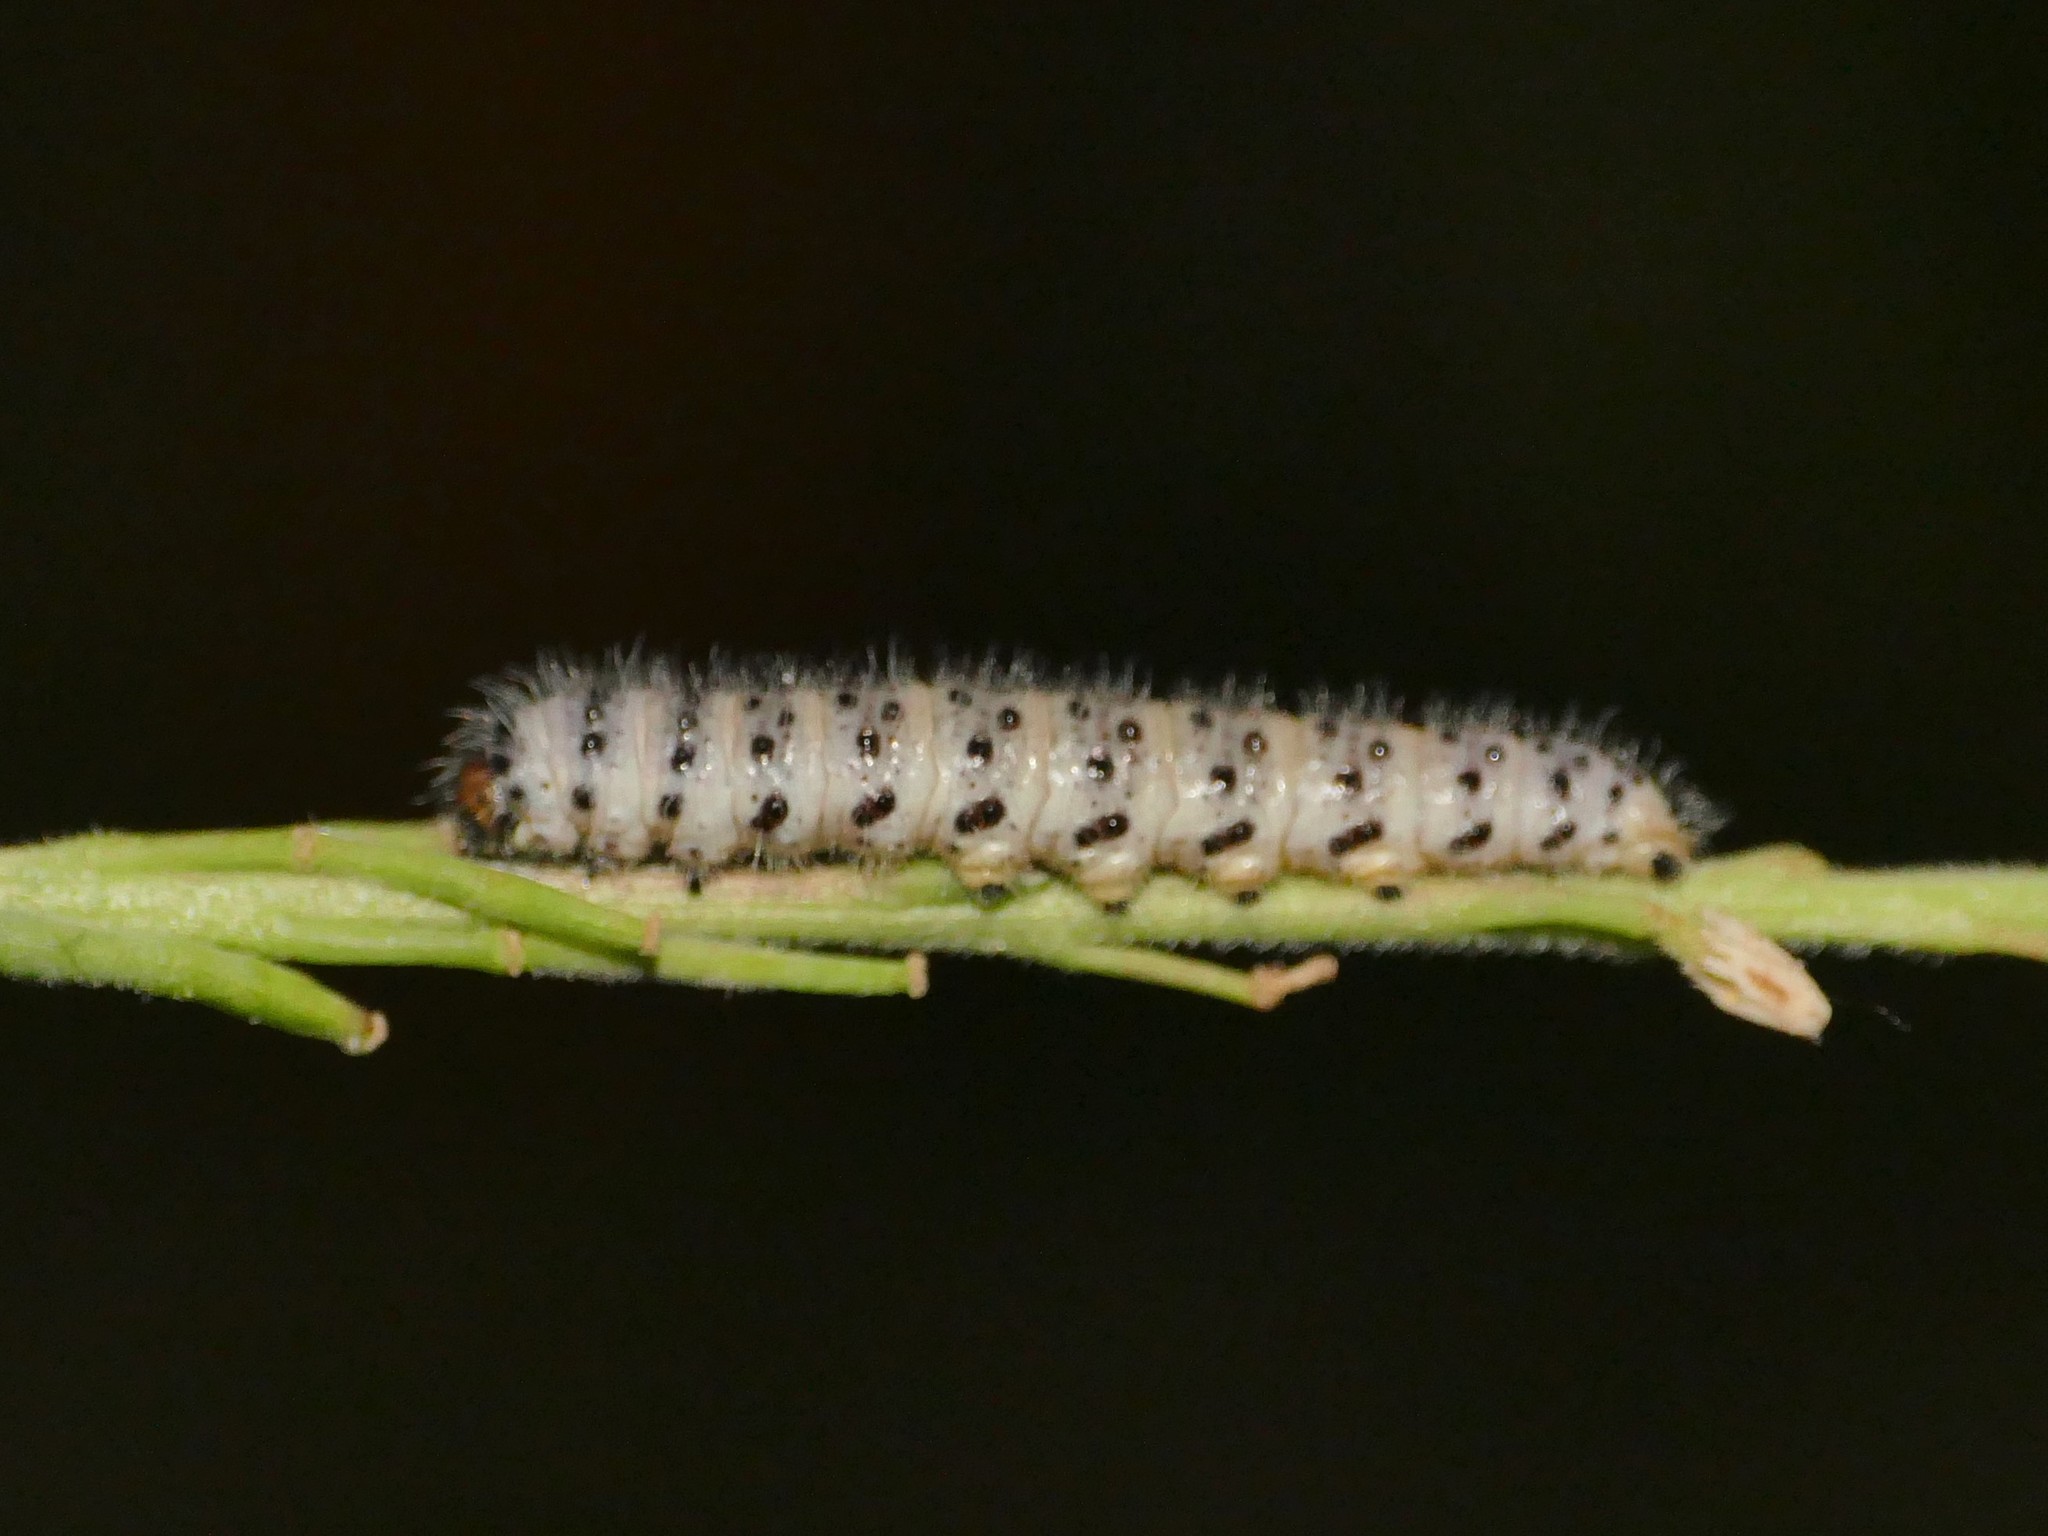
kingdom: Animalia
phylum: Arthropoda
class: Insecta
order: Lepidoptera
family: Pieridae
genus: Zegris
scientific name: Zegris eupheme
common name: Sooty orange tip
